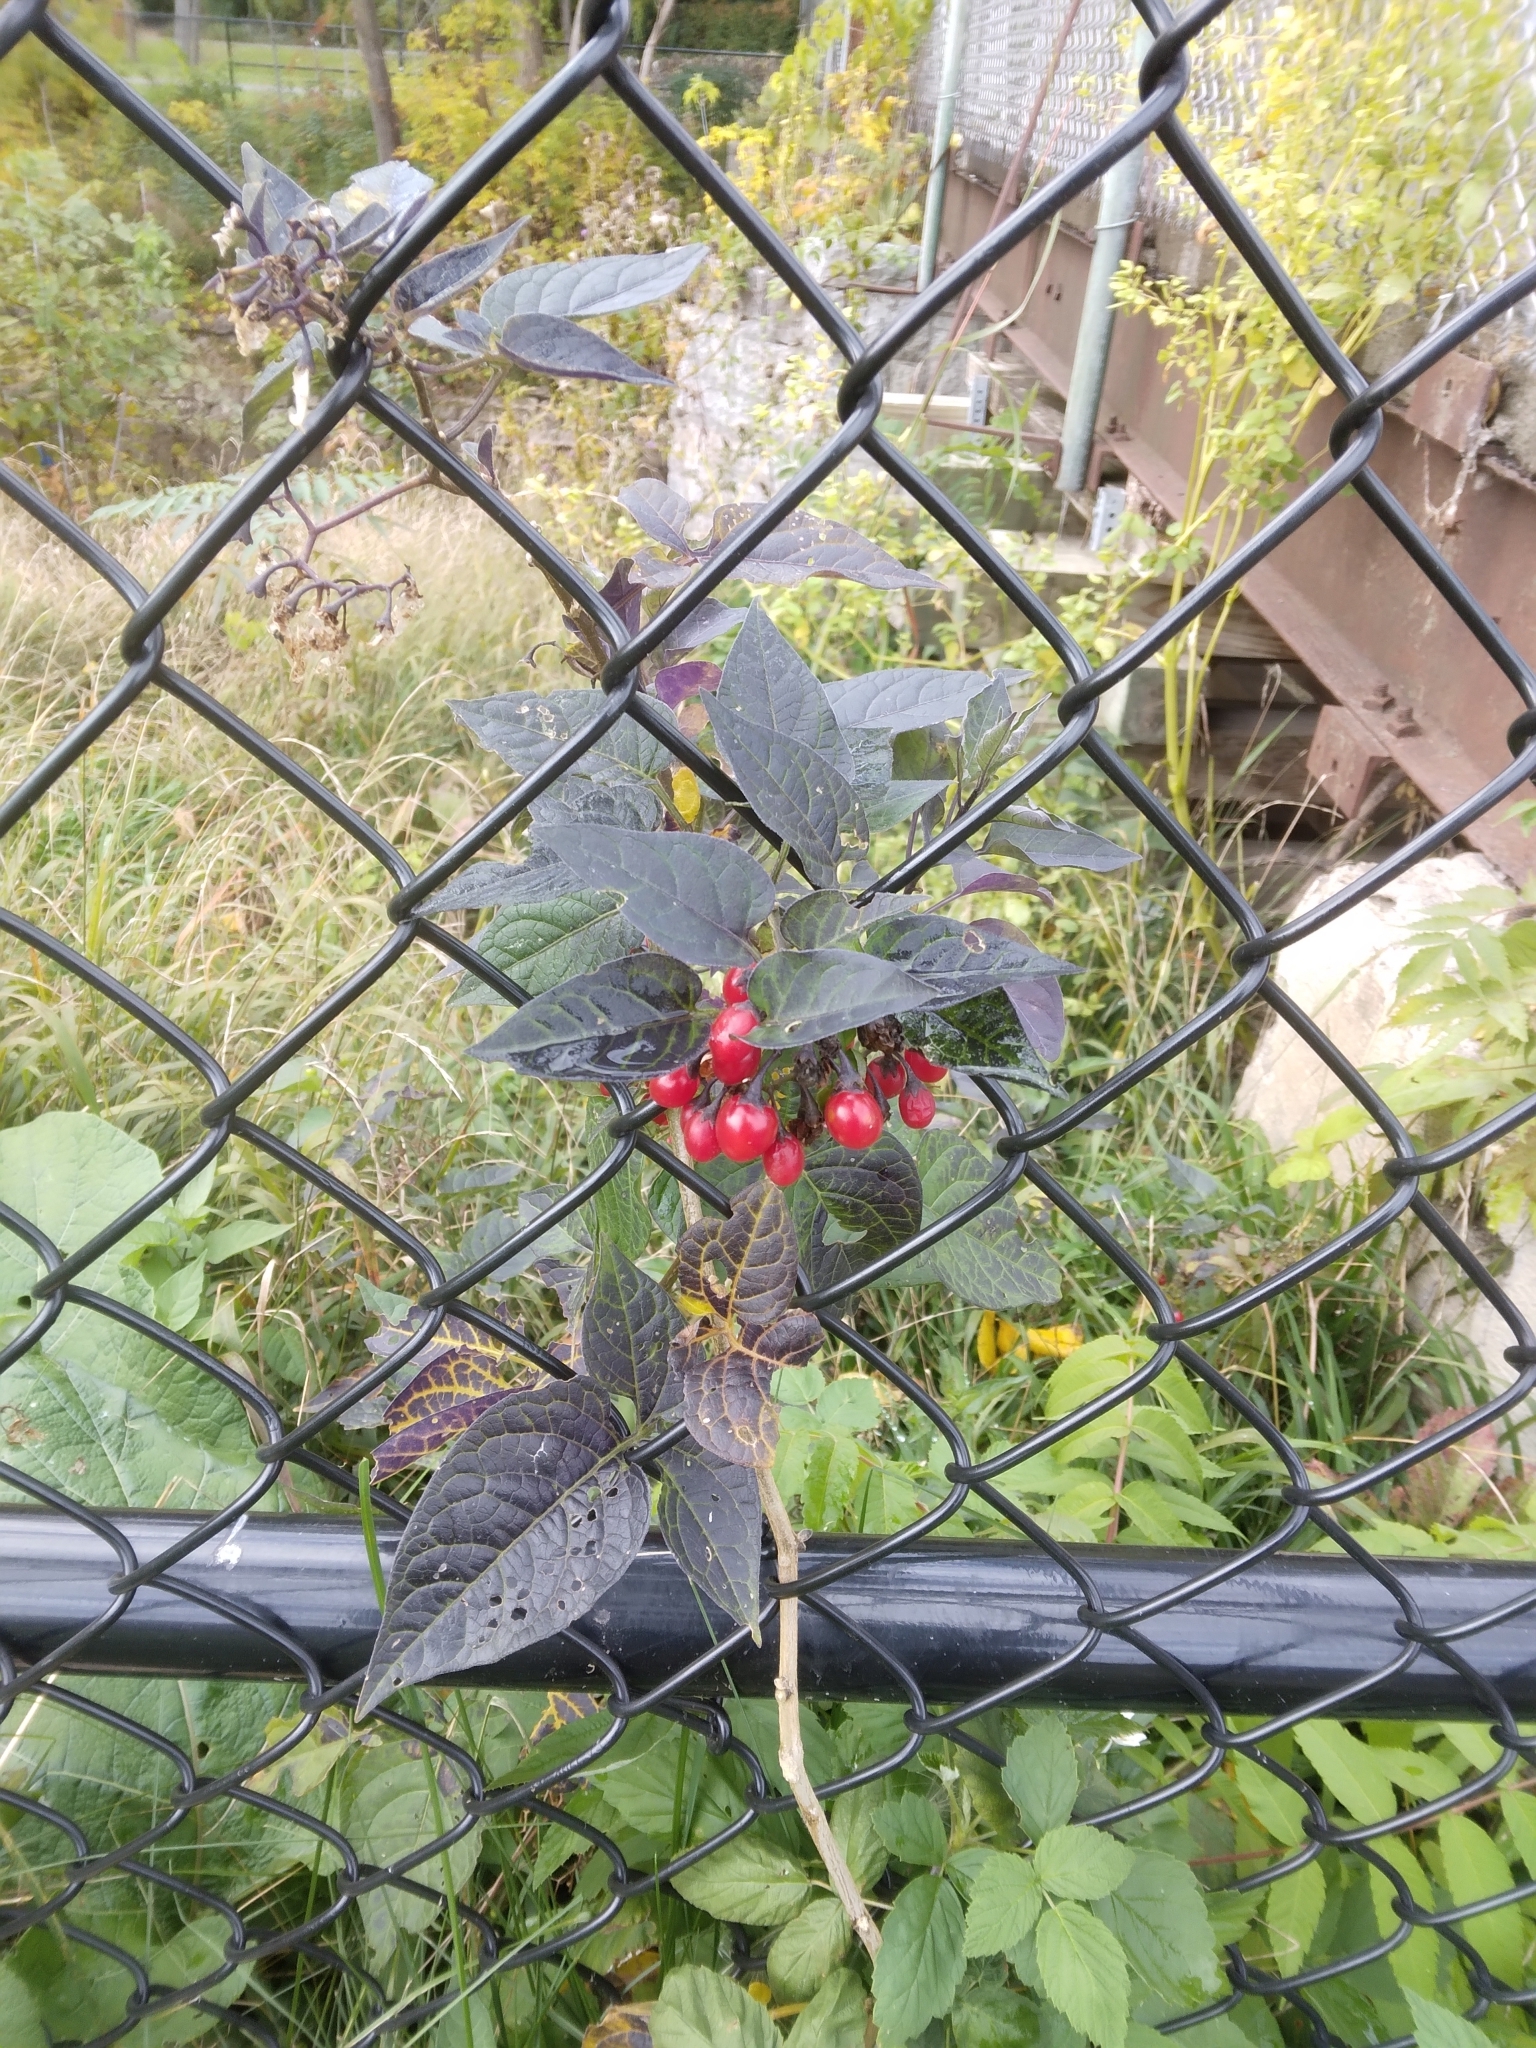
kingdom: Plantae
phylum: Tracheophyta
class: Magnoliopsida
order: Solanales
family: Solanaceae
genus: Solanum
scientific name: Solanum dulcamara
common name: Climbing nightshade
